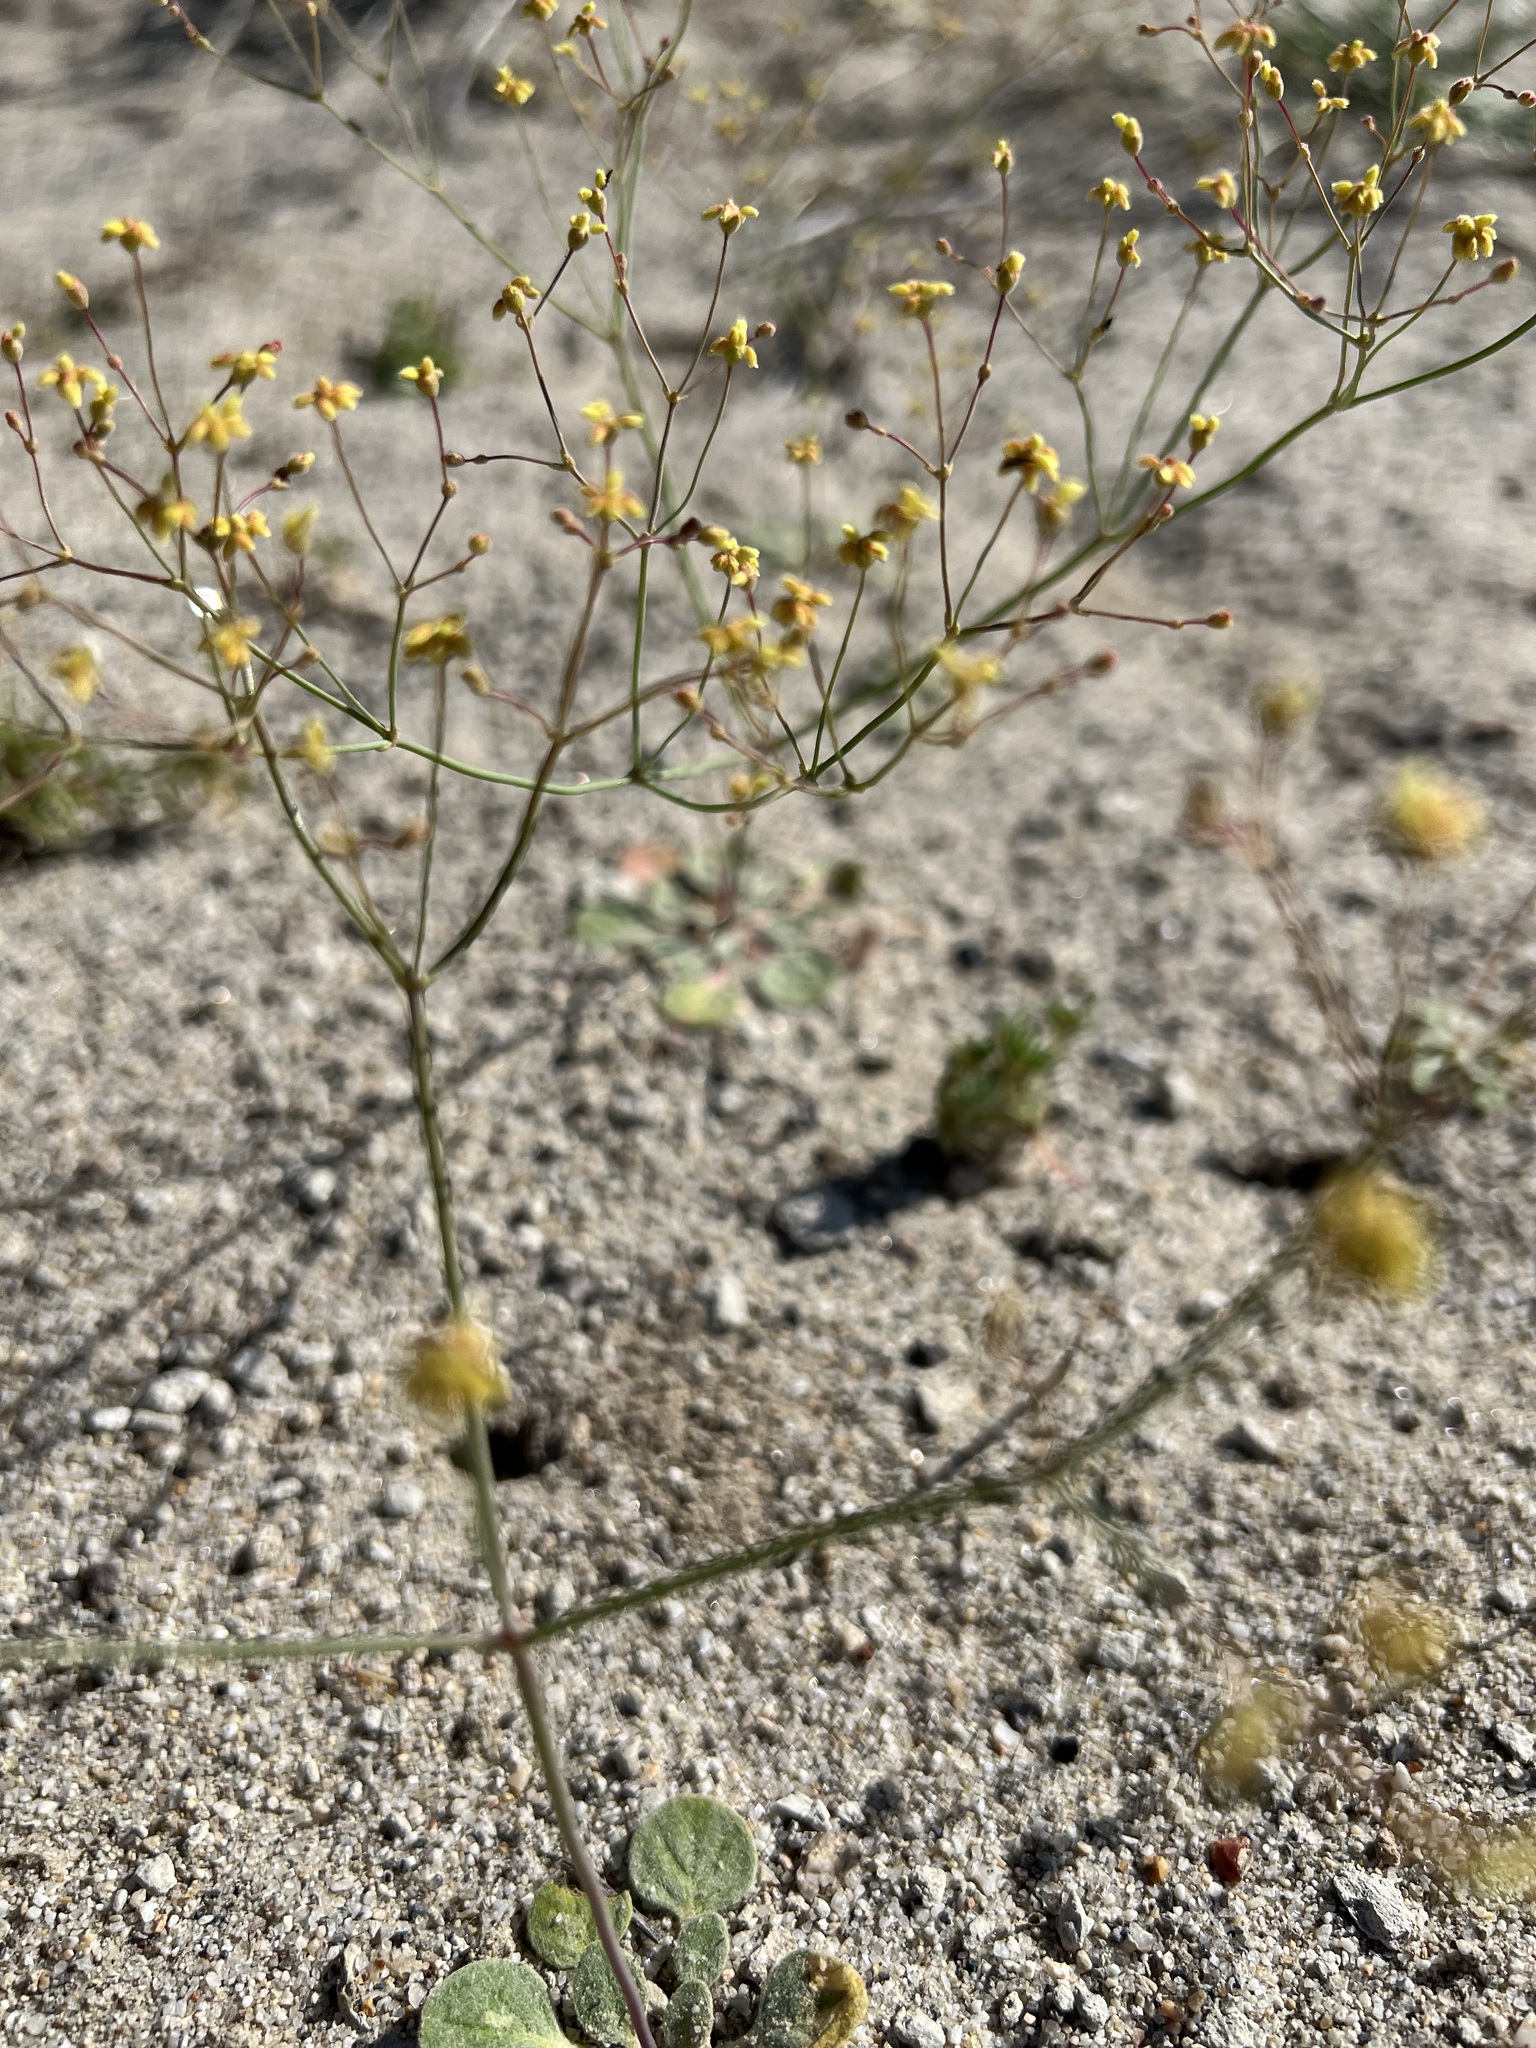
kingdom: Plantae
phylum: Tracheophyta
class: Magnoliopsida
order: Caryophyllales
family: Polygonaceae
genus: Eriogonum
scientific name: Eriogonum pusillum
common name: Yellow turbans
